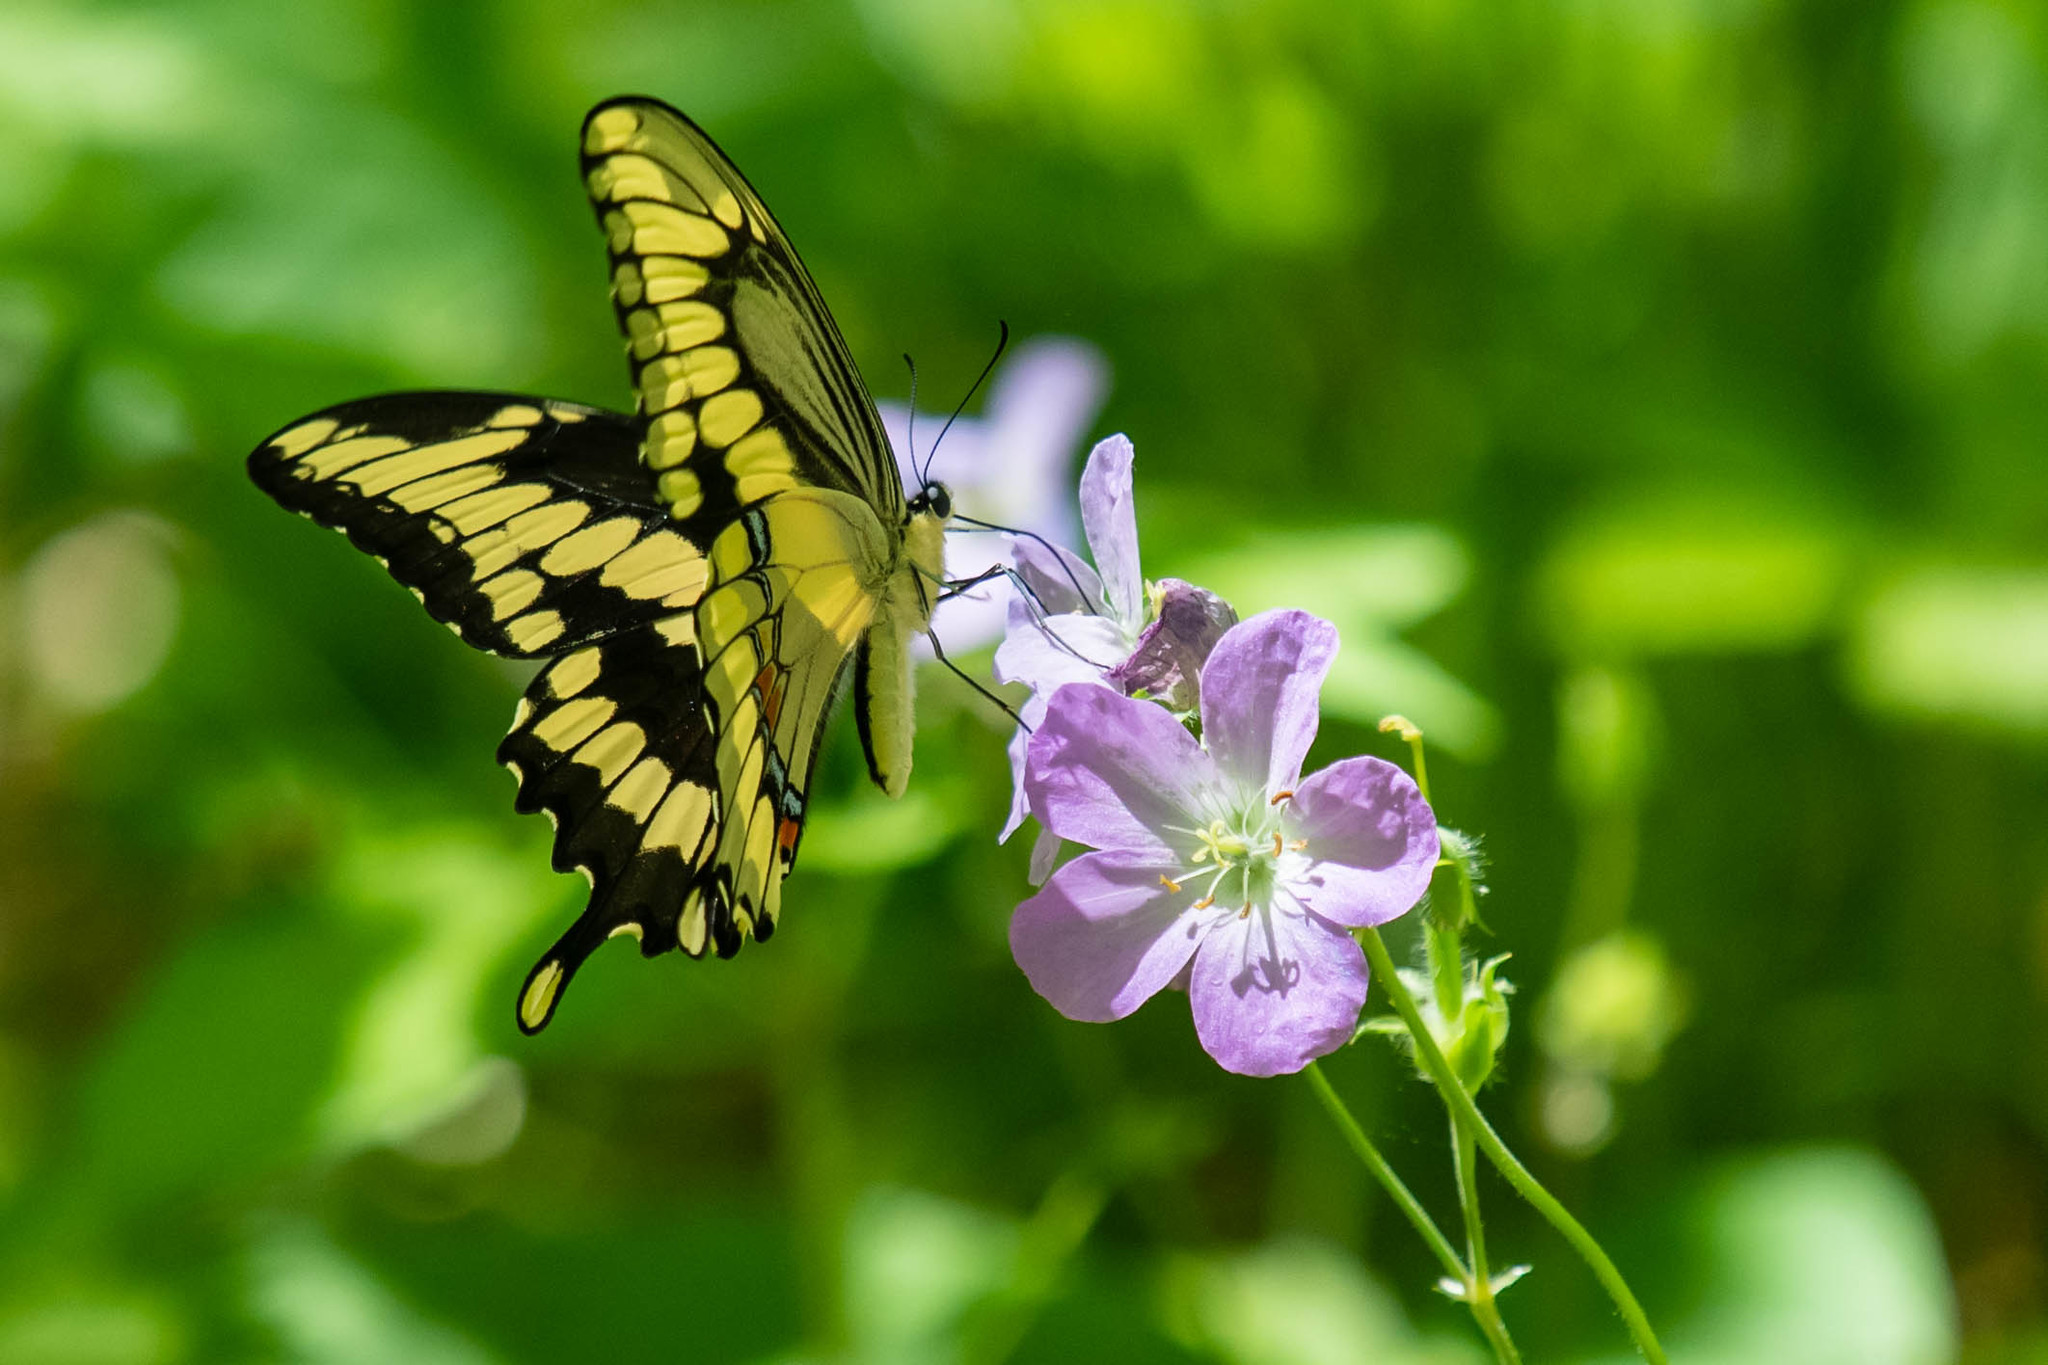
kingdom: Animalia
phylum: Arthropoda
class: Insecta
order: Lepidoptera
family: Papilionidae
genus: Papilio
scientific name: Papilio cresphontes
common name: Giant swallowtail
